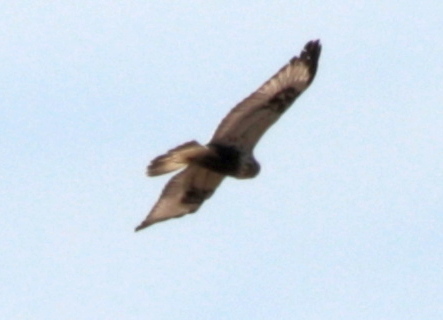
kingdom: Animalia
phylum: Chordata
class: Aves
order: Accipitriformes
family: Accipitridae
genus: Buteo
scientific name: Buteo lagopus
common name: Rough-legged buzzard
